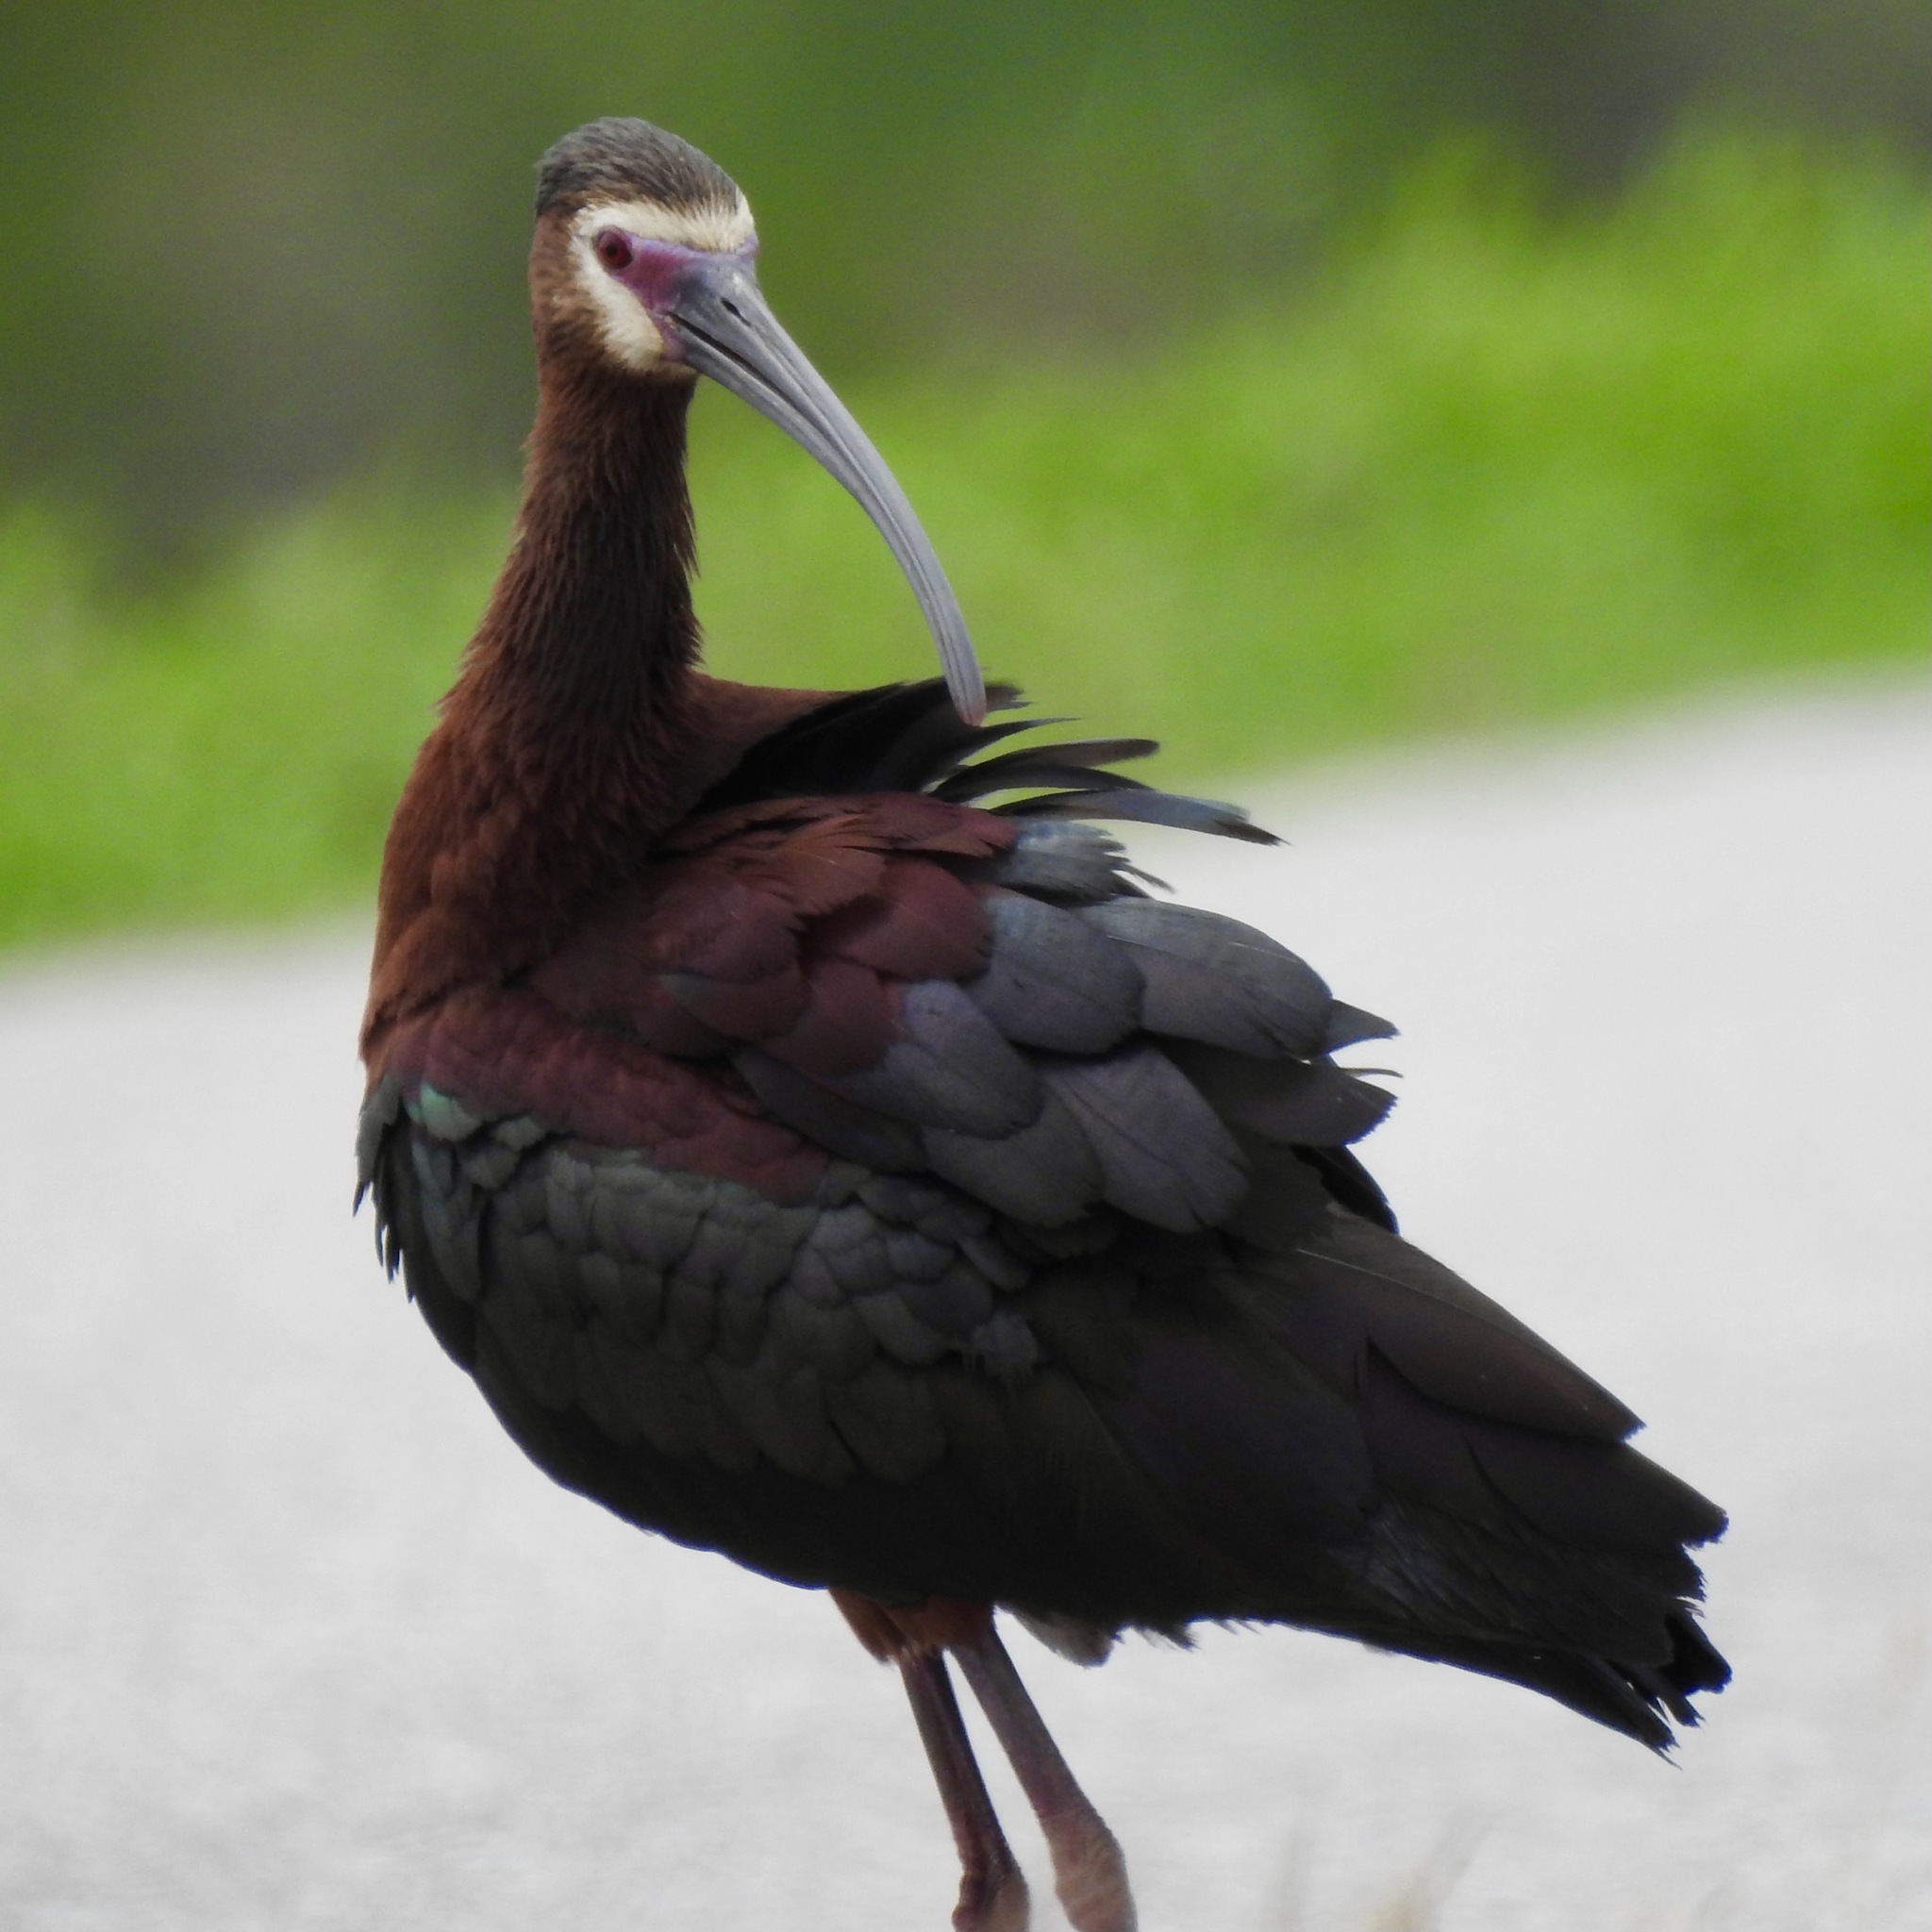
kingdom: Animalia
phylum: Chordata
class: Aves
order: Pelecaniformes
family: Threskiornithidae
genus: Plegadis
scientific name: Plegadis chihi
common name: White-faced ibis
